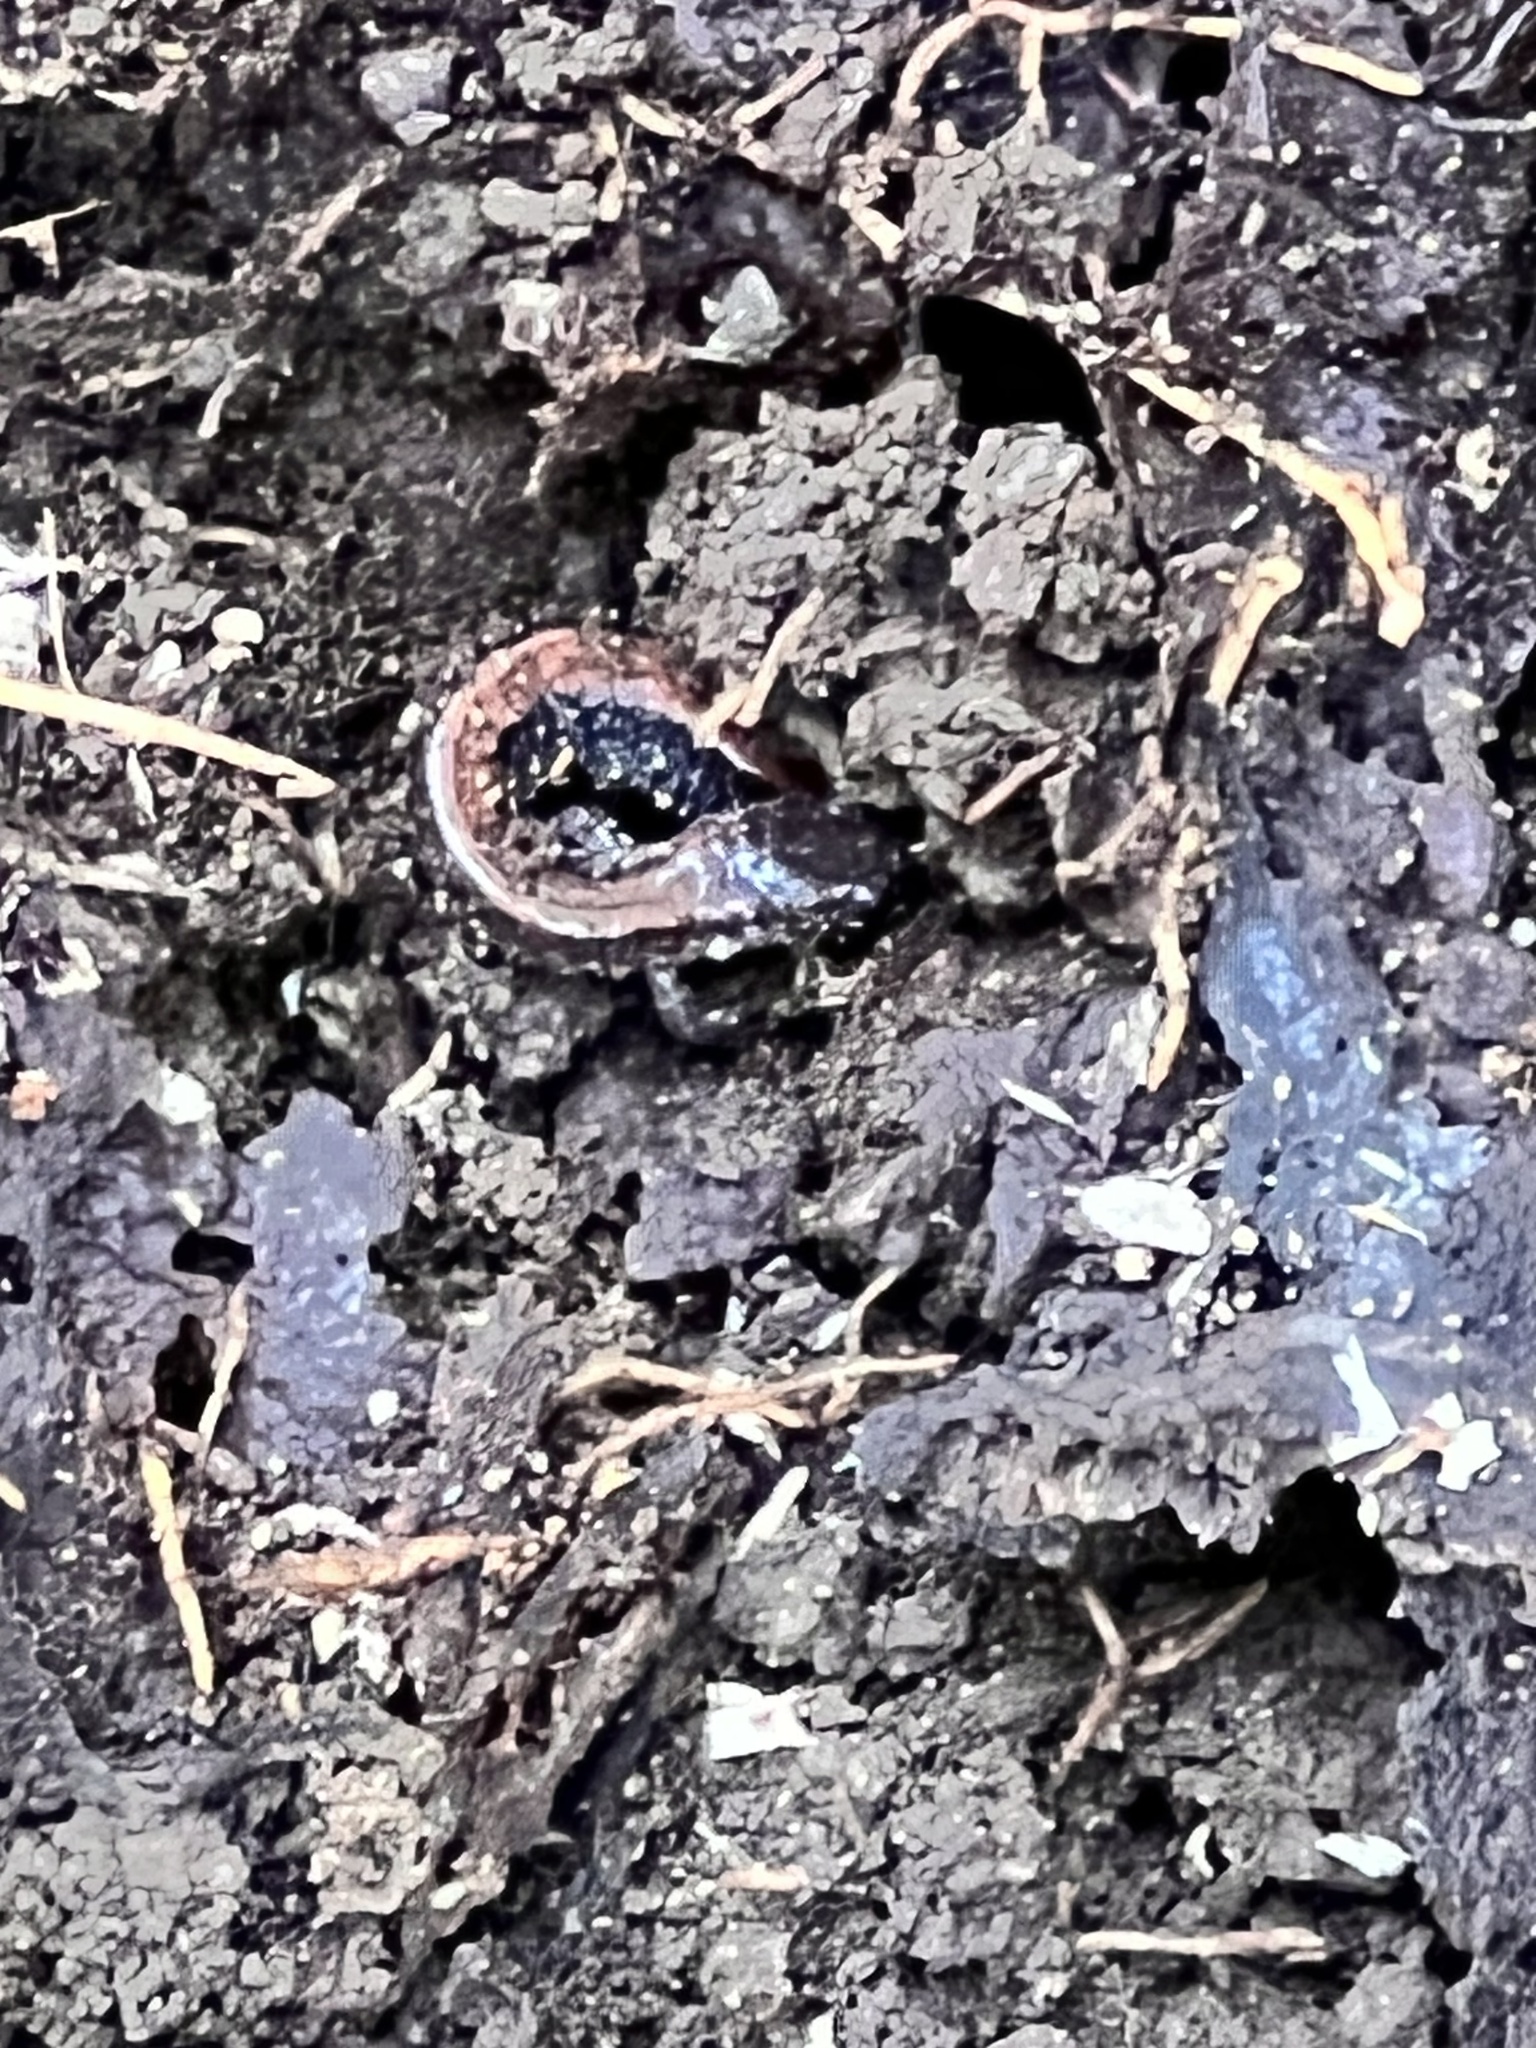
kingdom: Animalia
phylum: Chordata
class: Amphibia
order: Caudata
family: Plethodontidae
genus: Plethodon
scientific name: Plethodon cinereus
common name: Redback salamander
